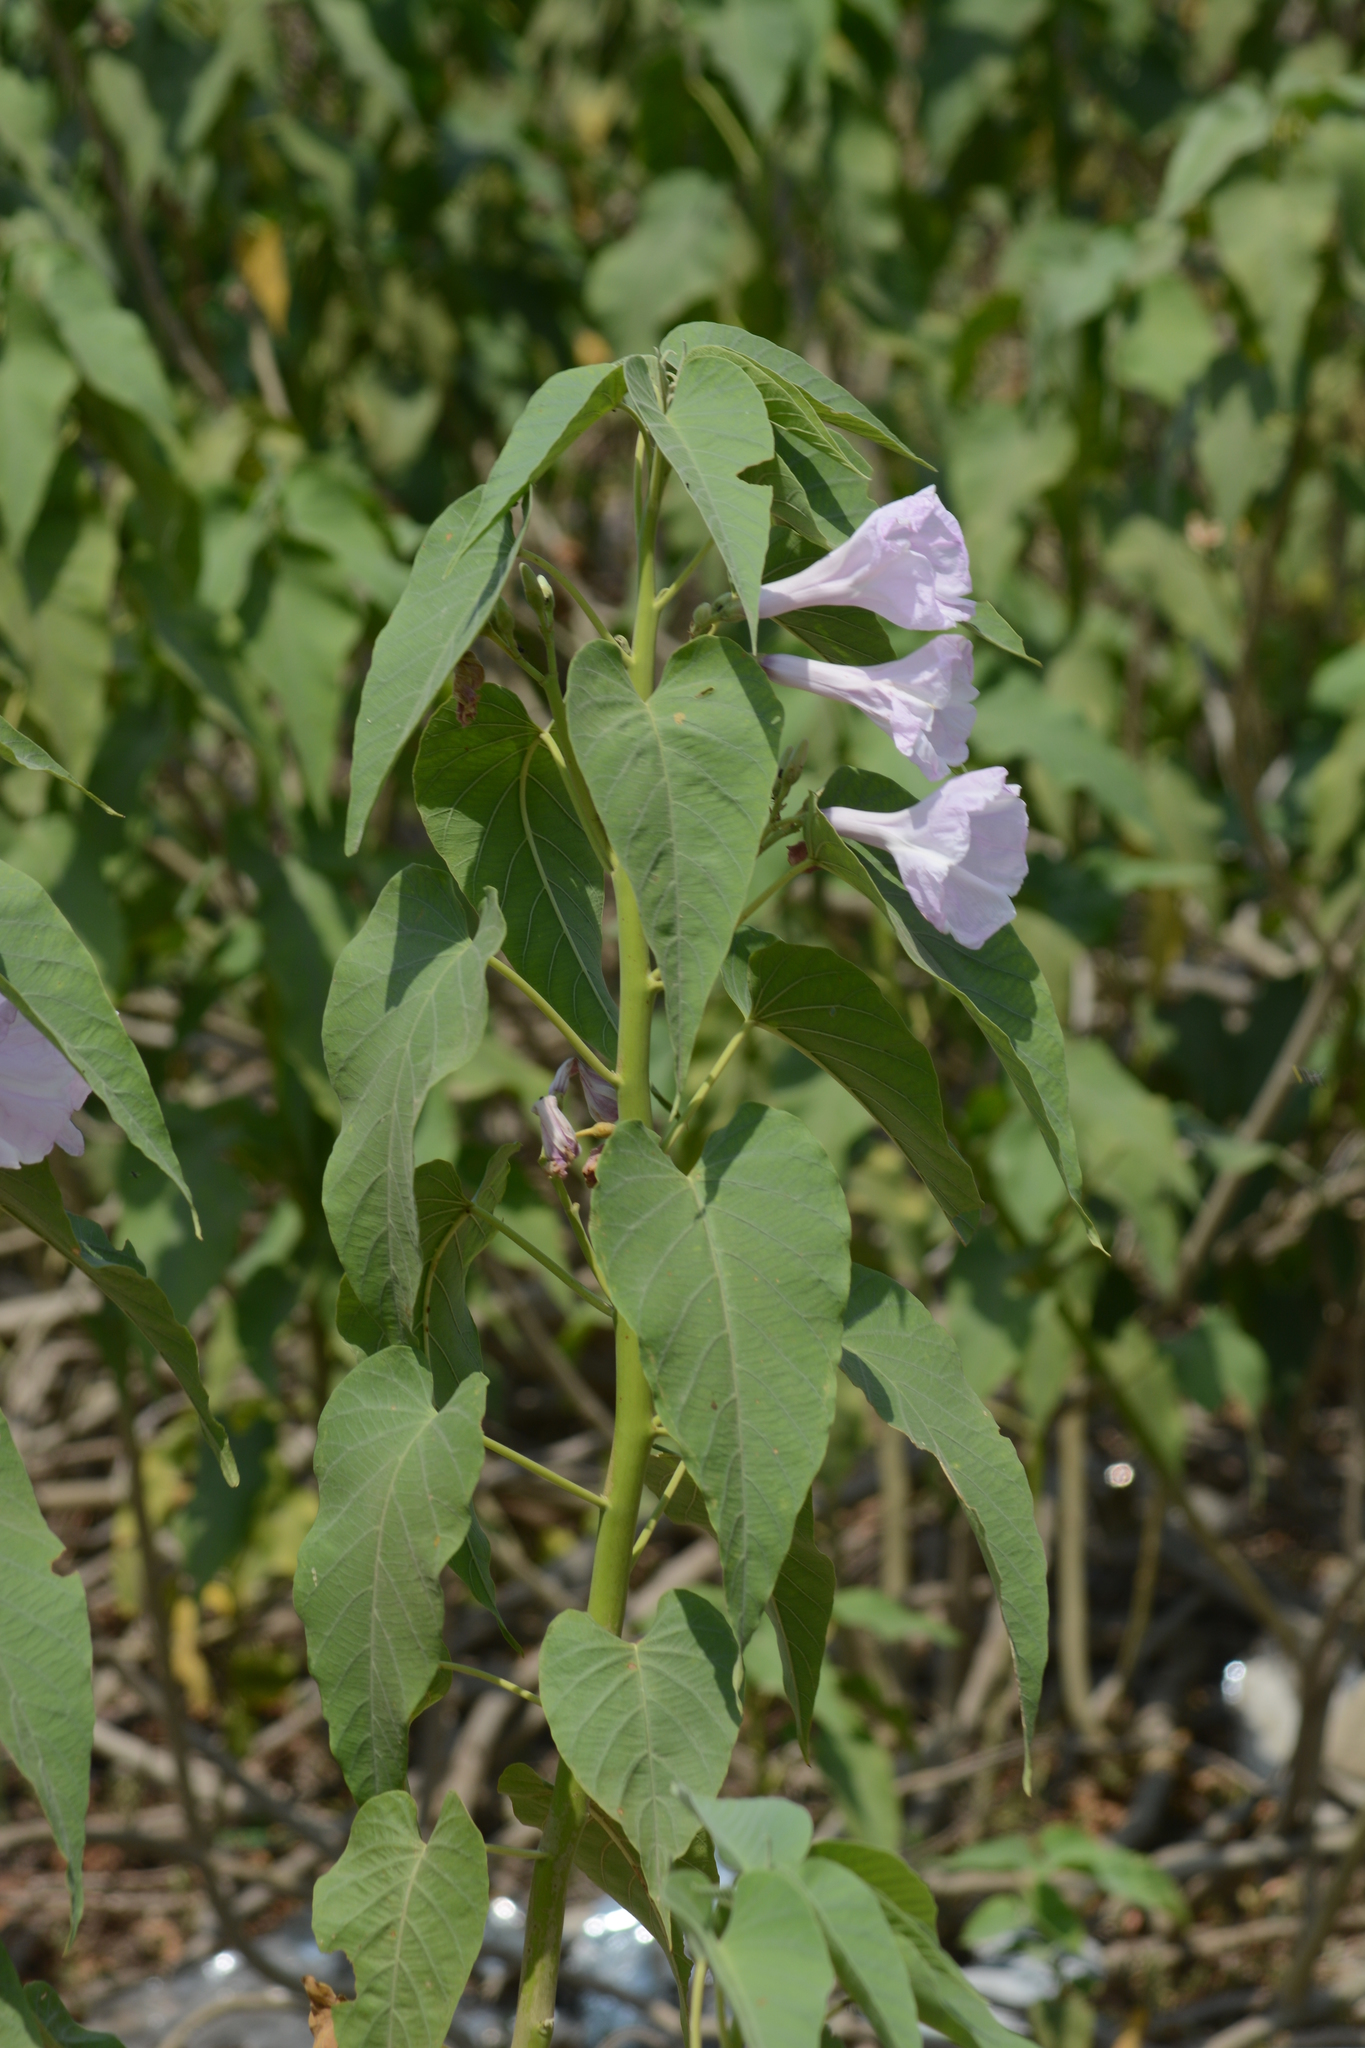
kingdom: Plantae
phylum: Tracheophyta
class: Magnoliopsida
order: Solanales
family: Convolvulaceae
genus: Ipomoea
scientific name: Ipomoea carnea
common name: Morning-glory
